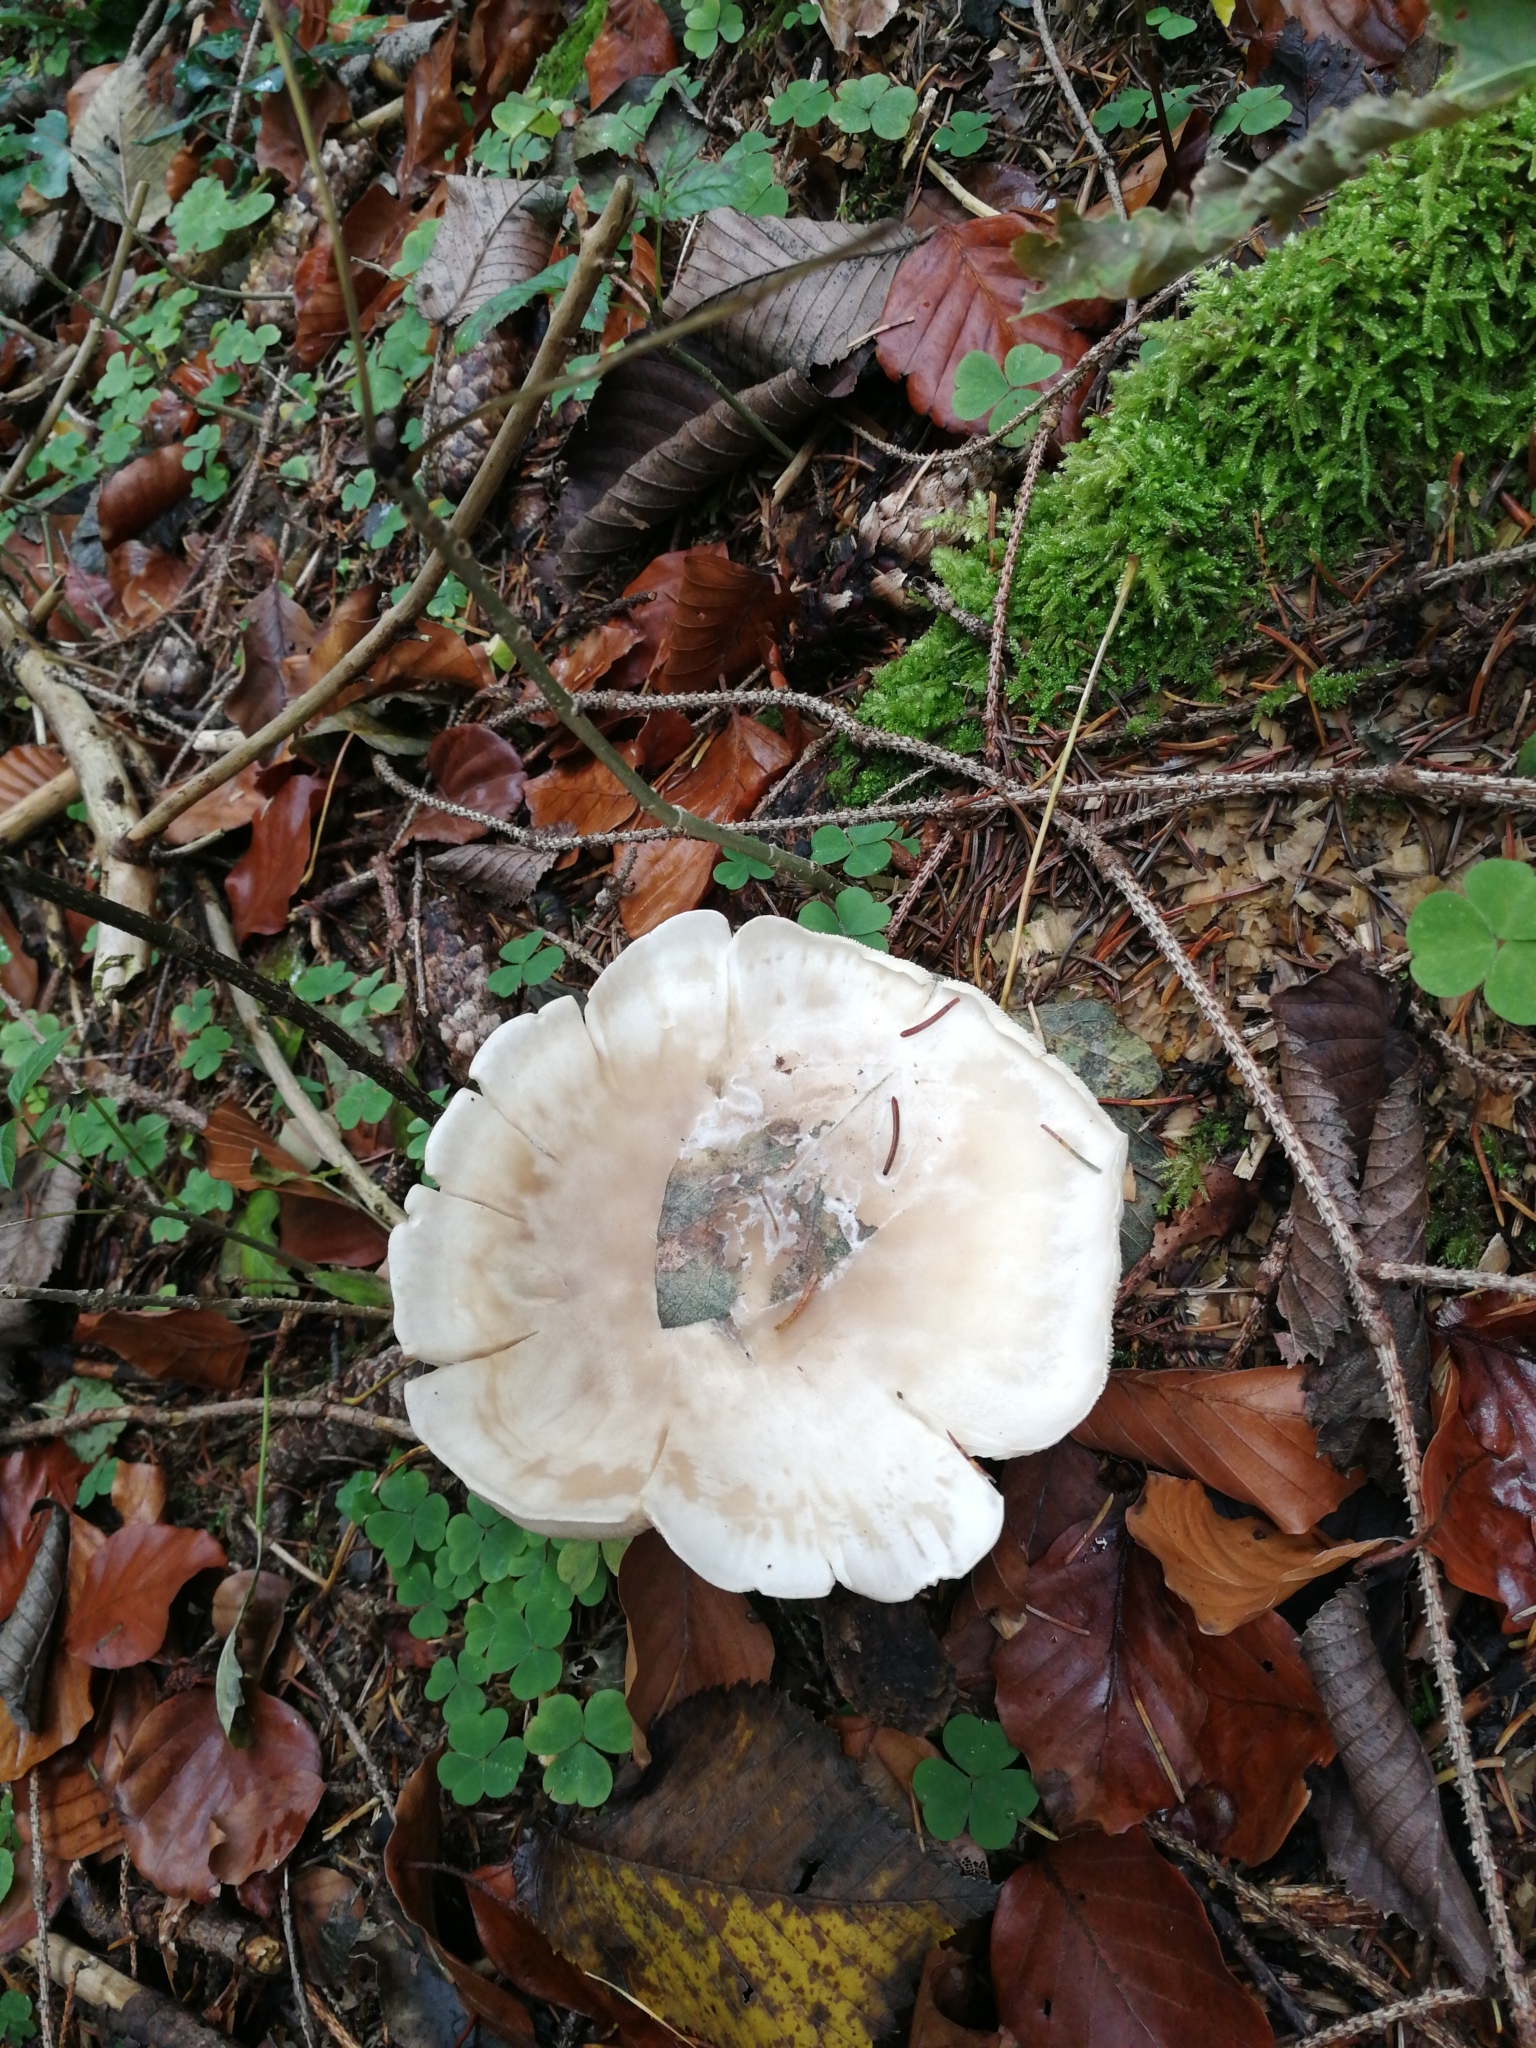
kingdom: Fungi
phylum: Basidiomycota
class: Agaricomycetes
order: Agaricales
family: Tricholomataceae
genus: Clitocybe
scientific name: Clitocybe nebularis
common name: Clouded agaric
